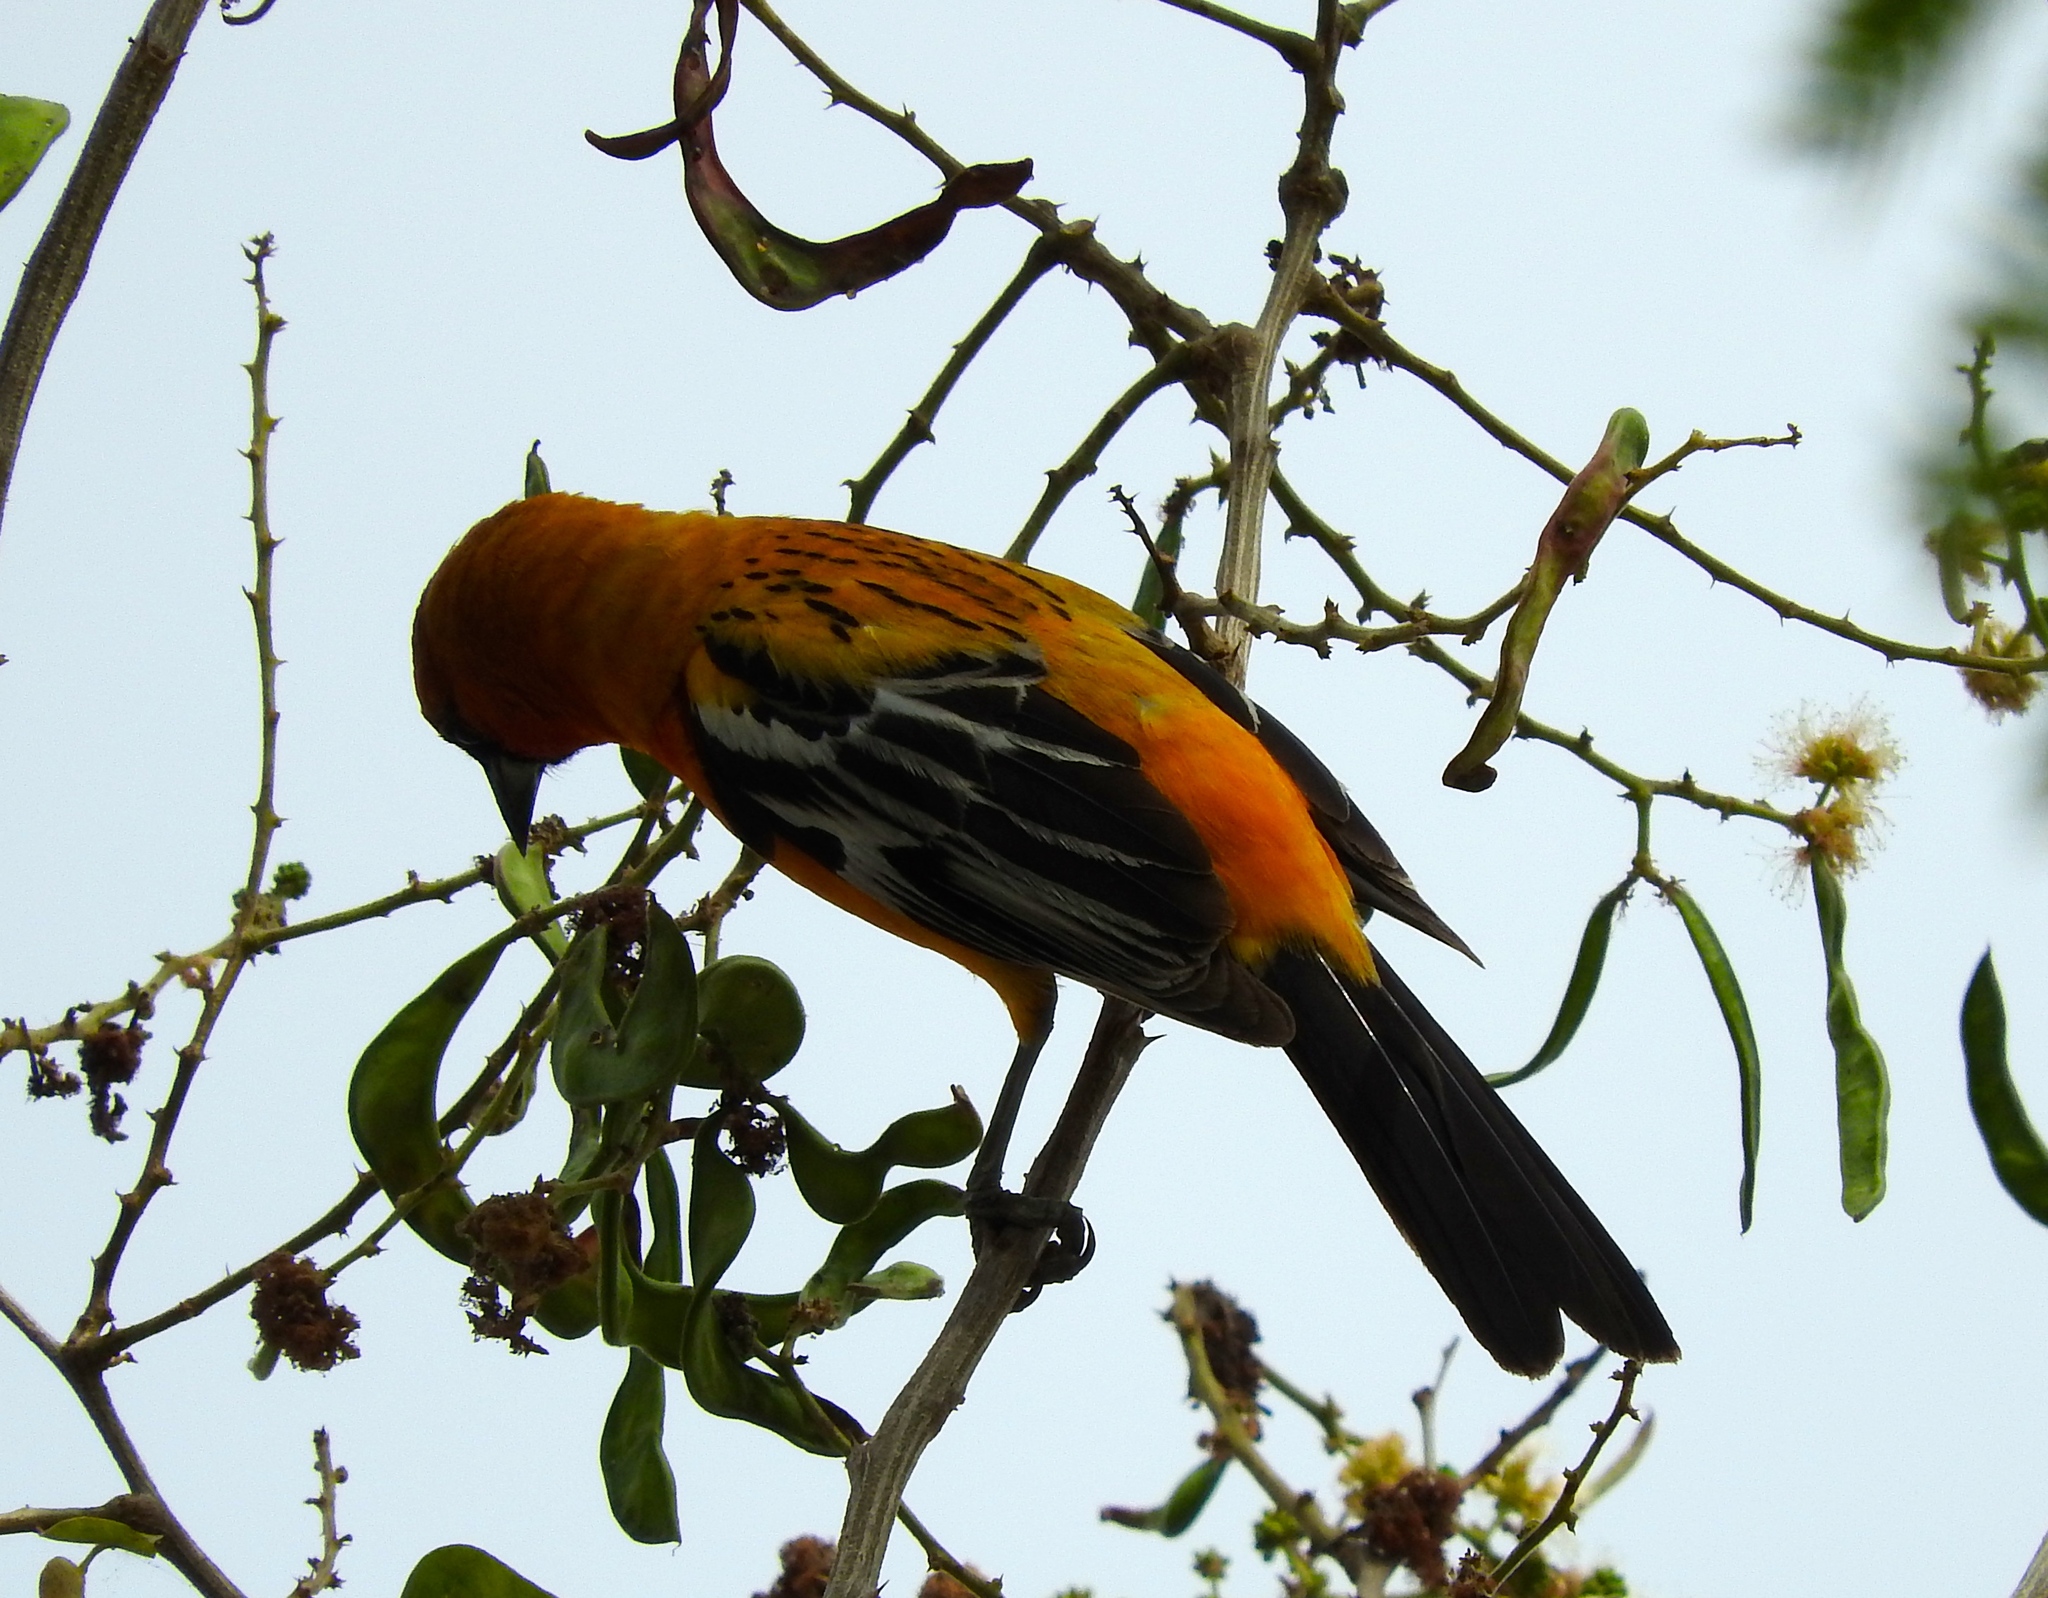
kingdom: Animalia
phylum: Chordata
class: Aves
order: Passeriformes
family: Icteridae
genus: Icterus
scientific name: Icterus pustulatus
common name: Streak-backed oriole
